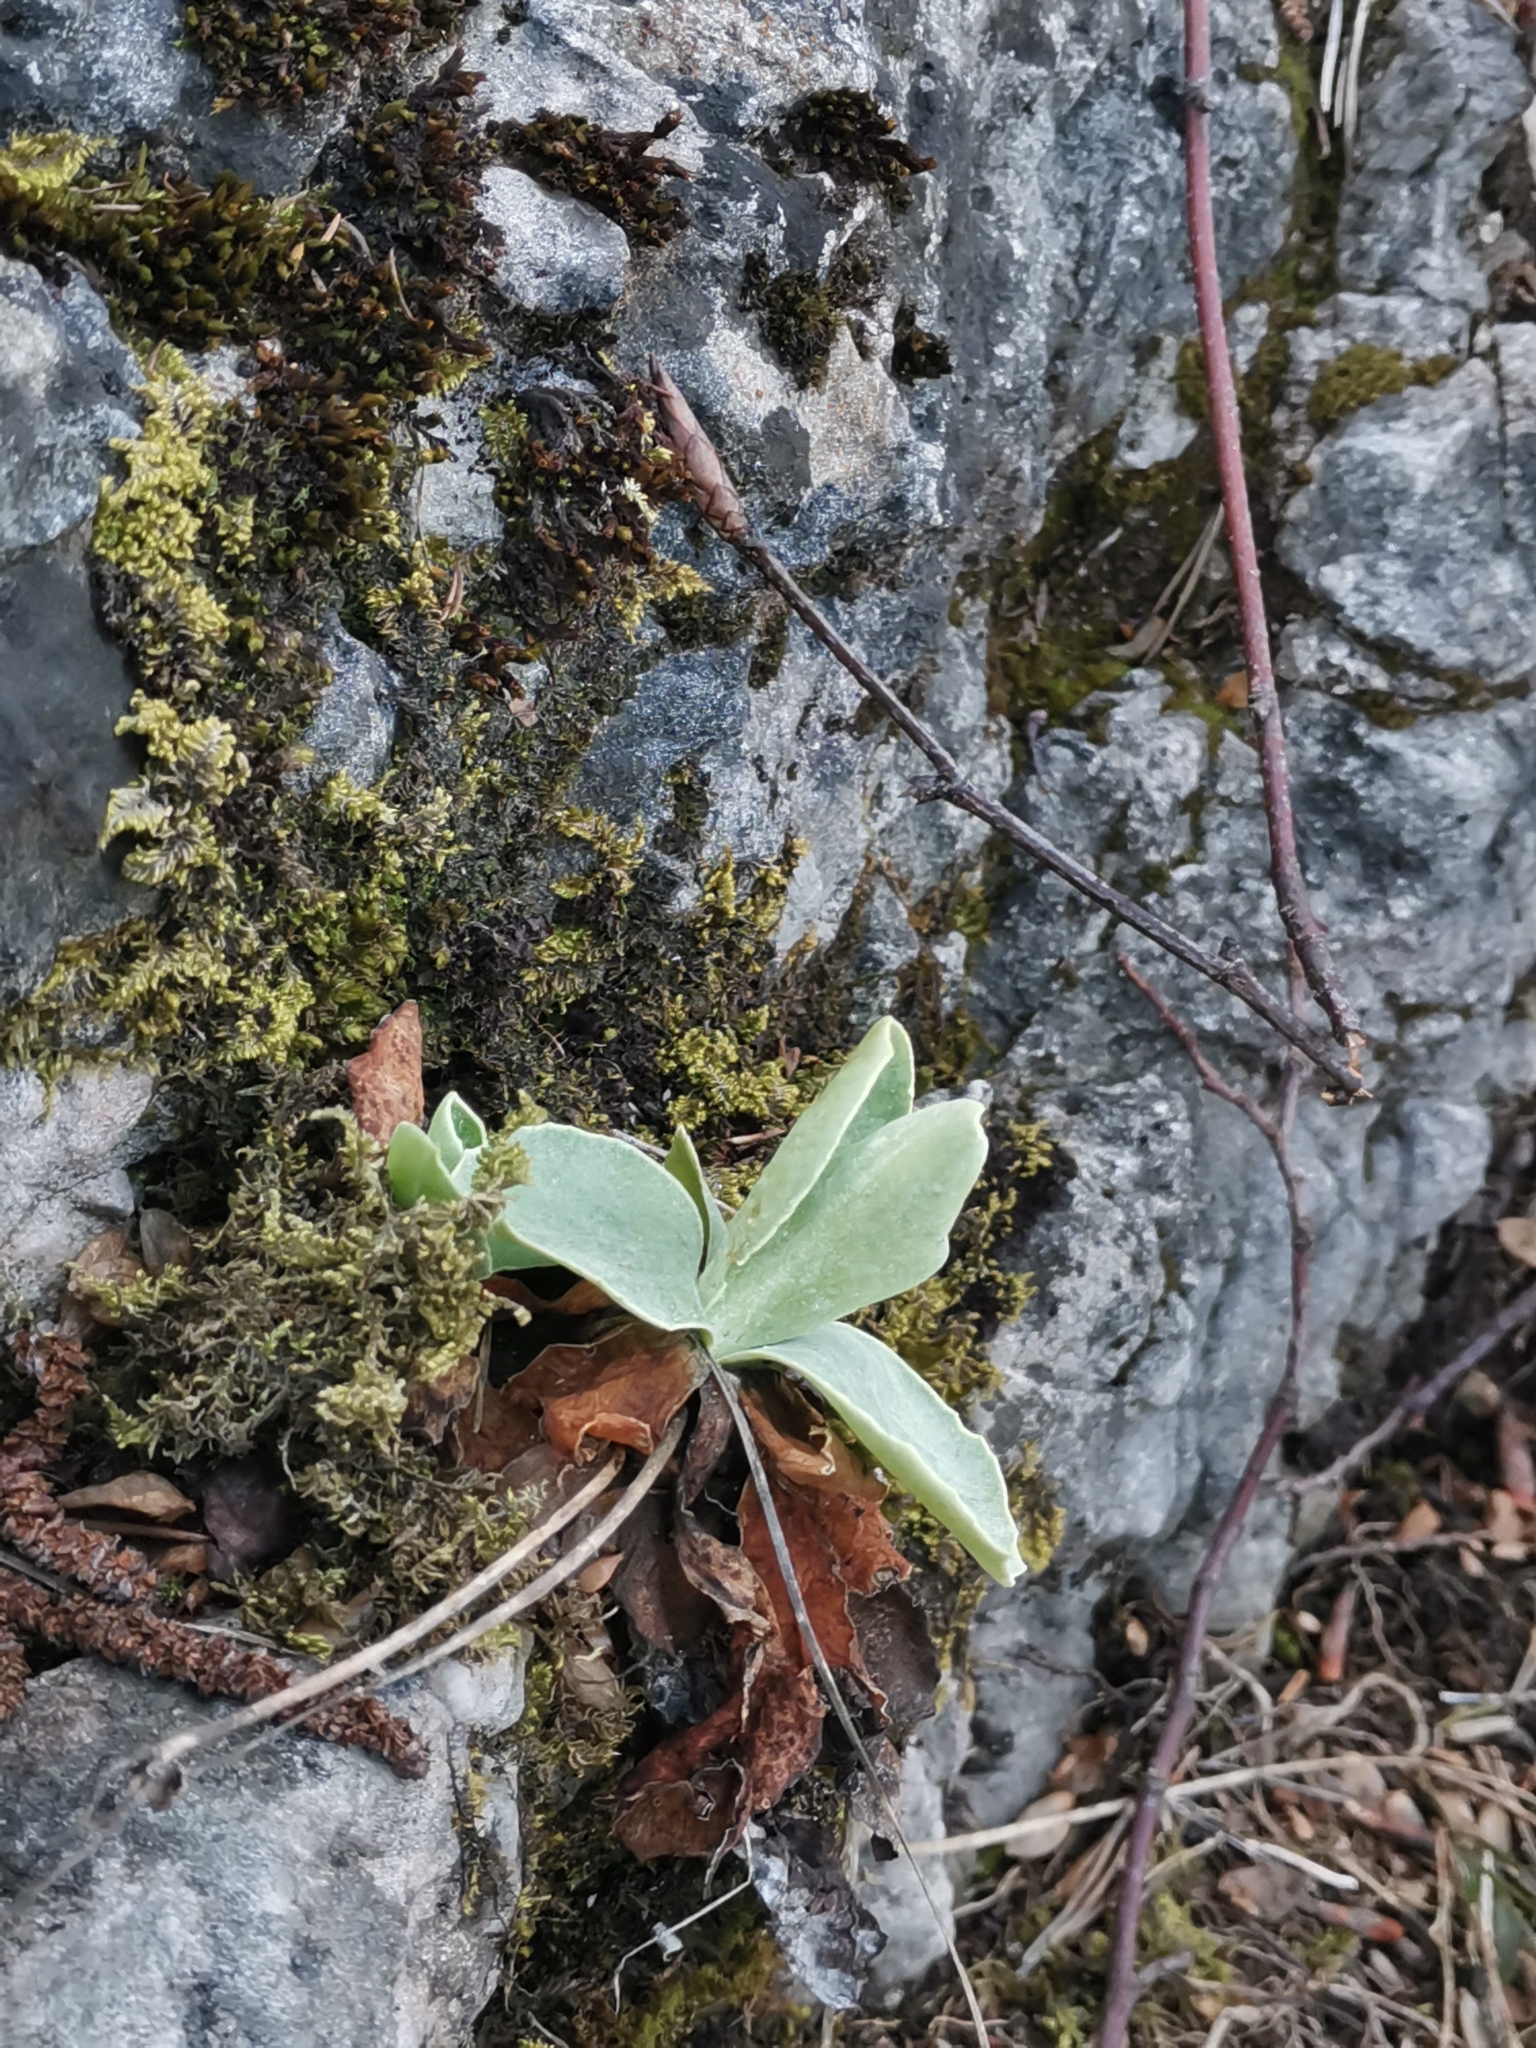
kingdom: Plantae
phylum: Tracheophyta
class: Magnoliopsida
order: Ericales
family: Primulaceae
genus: Primula
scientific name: Primula auricula
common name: Auricula
